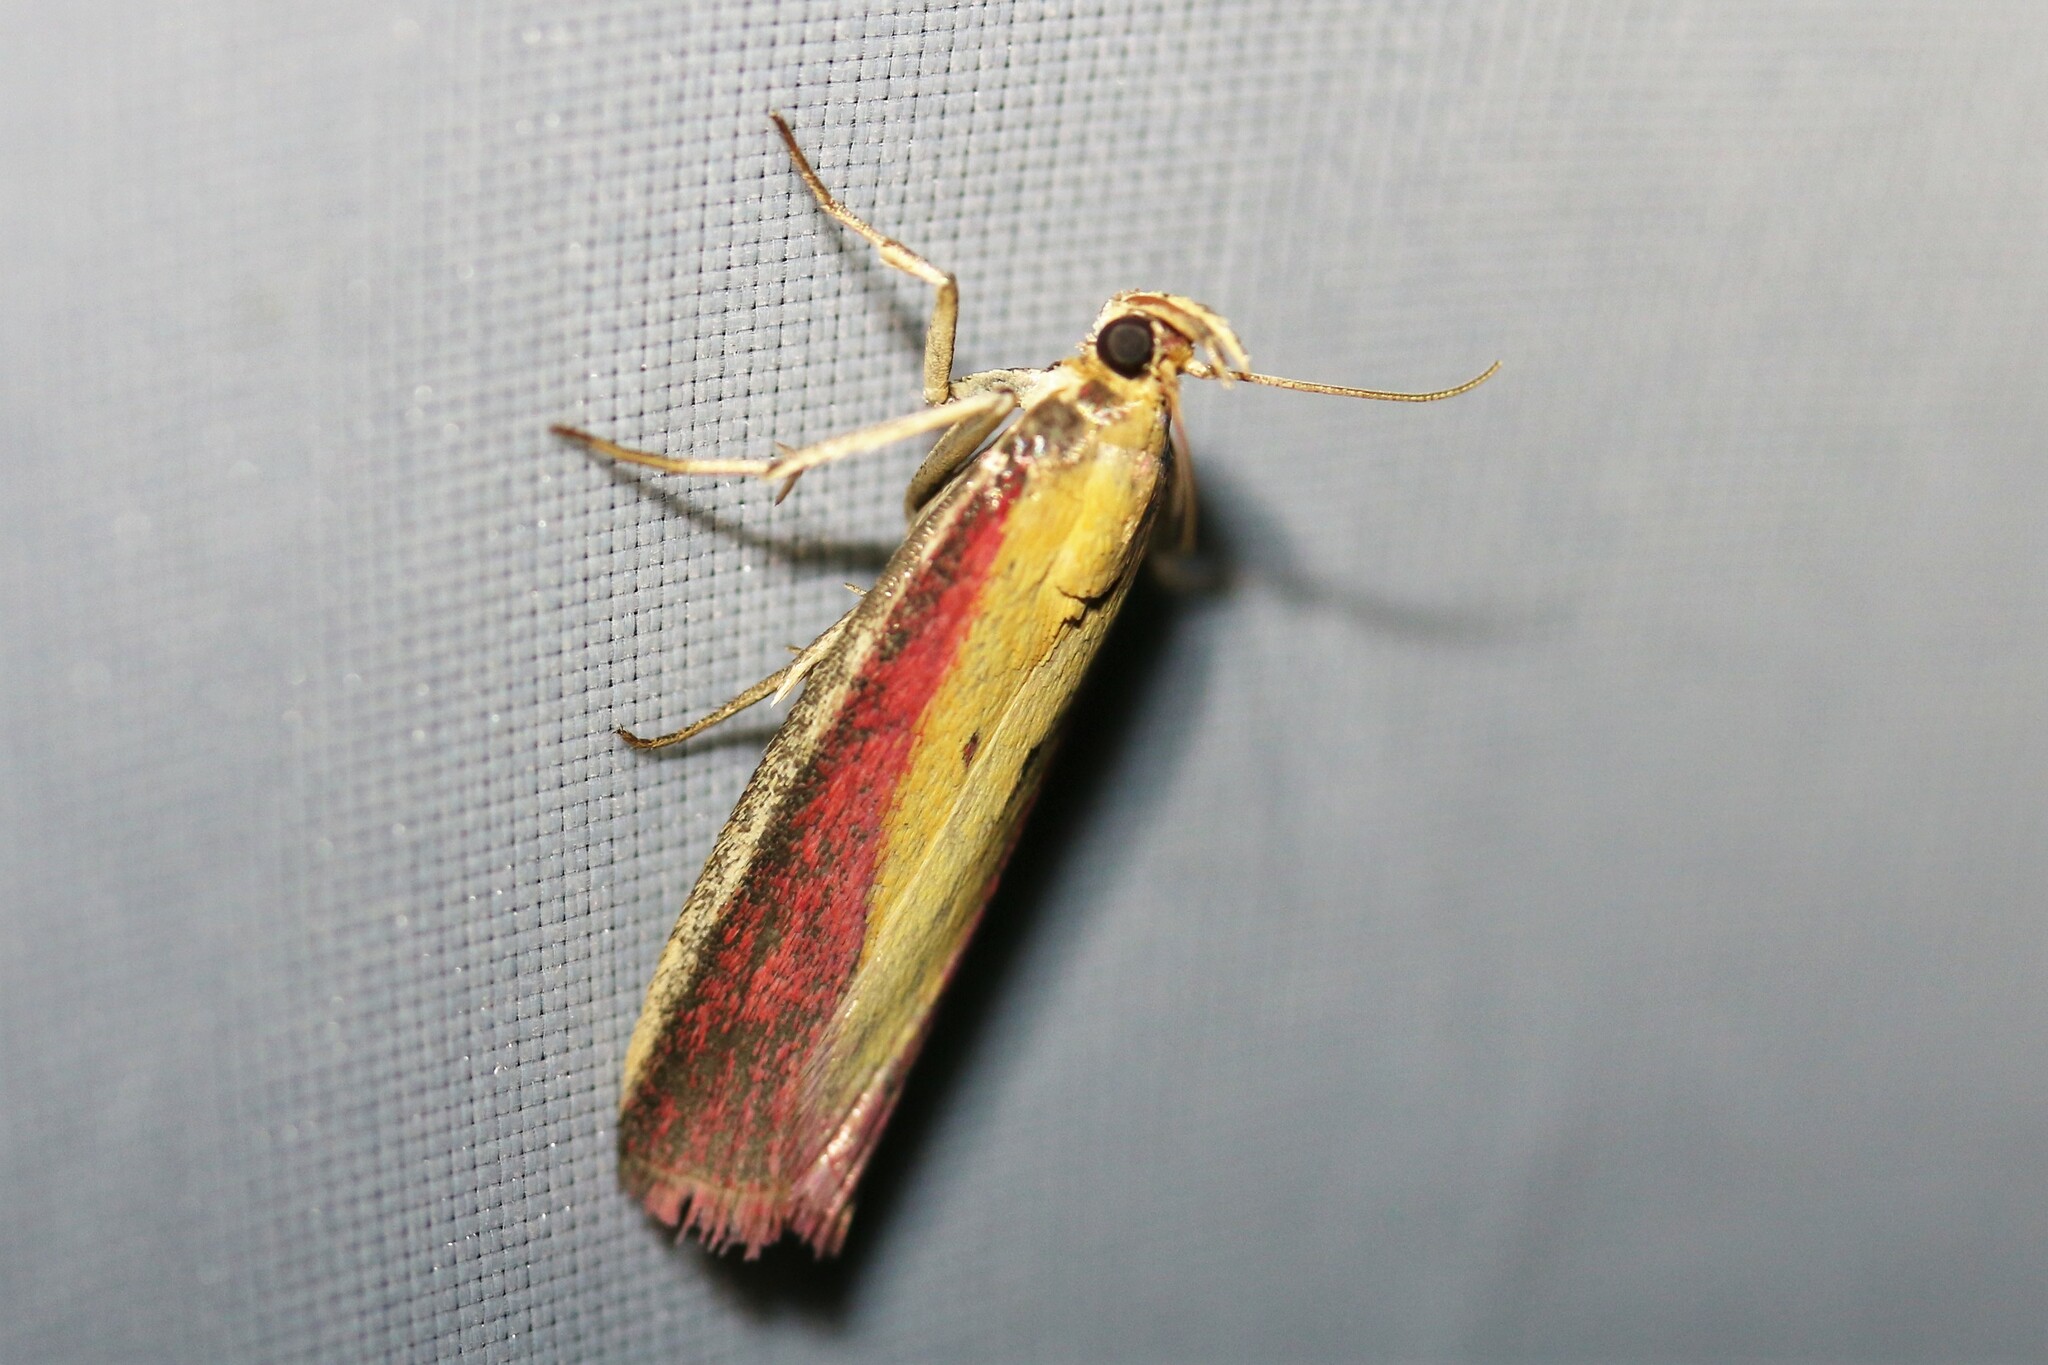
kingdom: Animalia
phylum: Arthropoda
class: Insecta
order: Lepidoptera
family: Pyralidae
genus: Oncocera
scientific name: Oncocera semirubella
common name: Rosy-striped knot-horn
